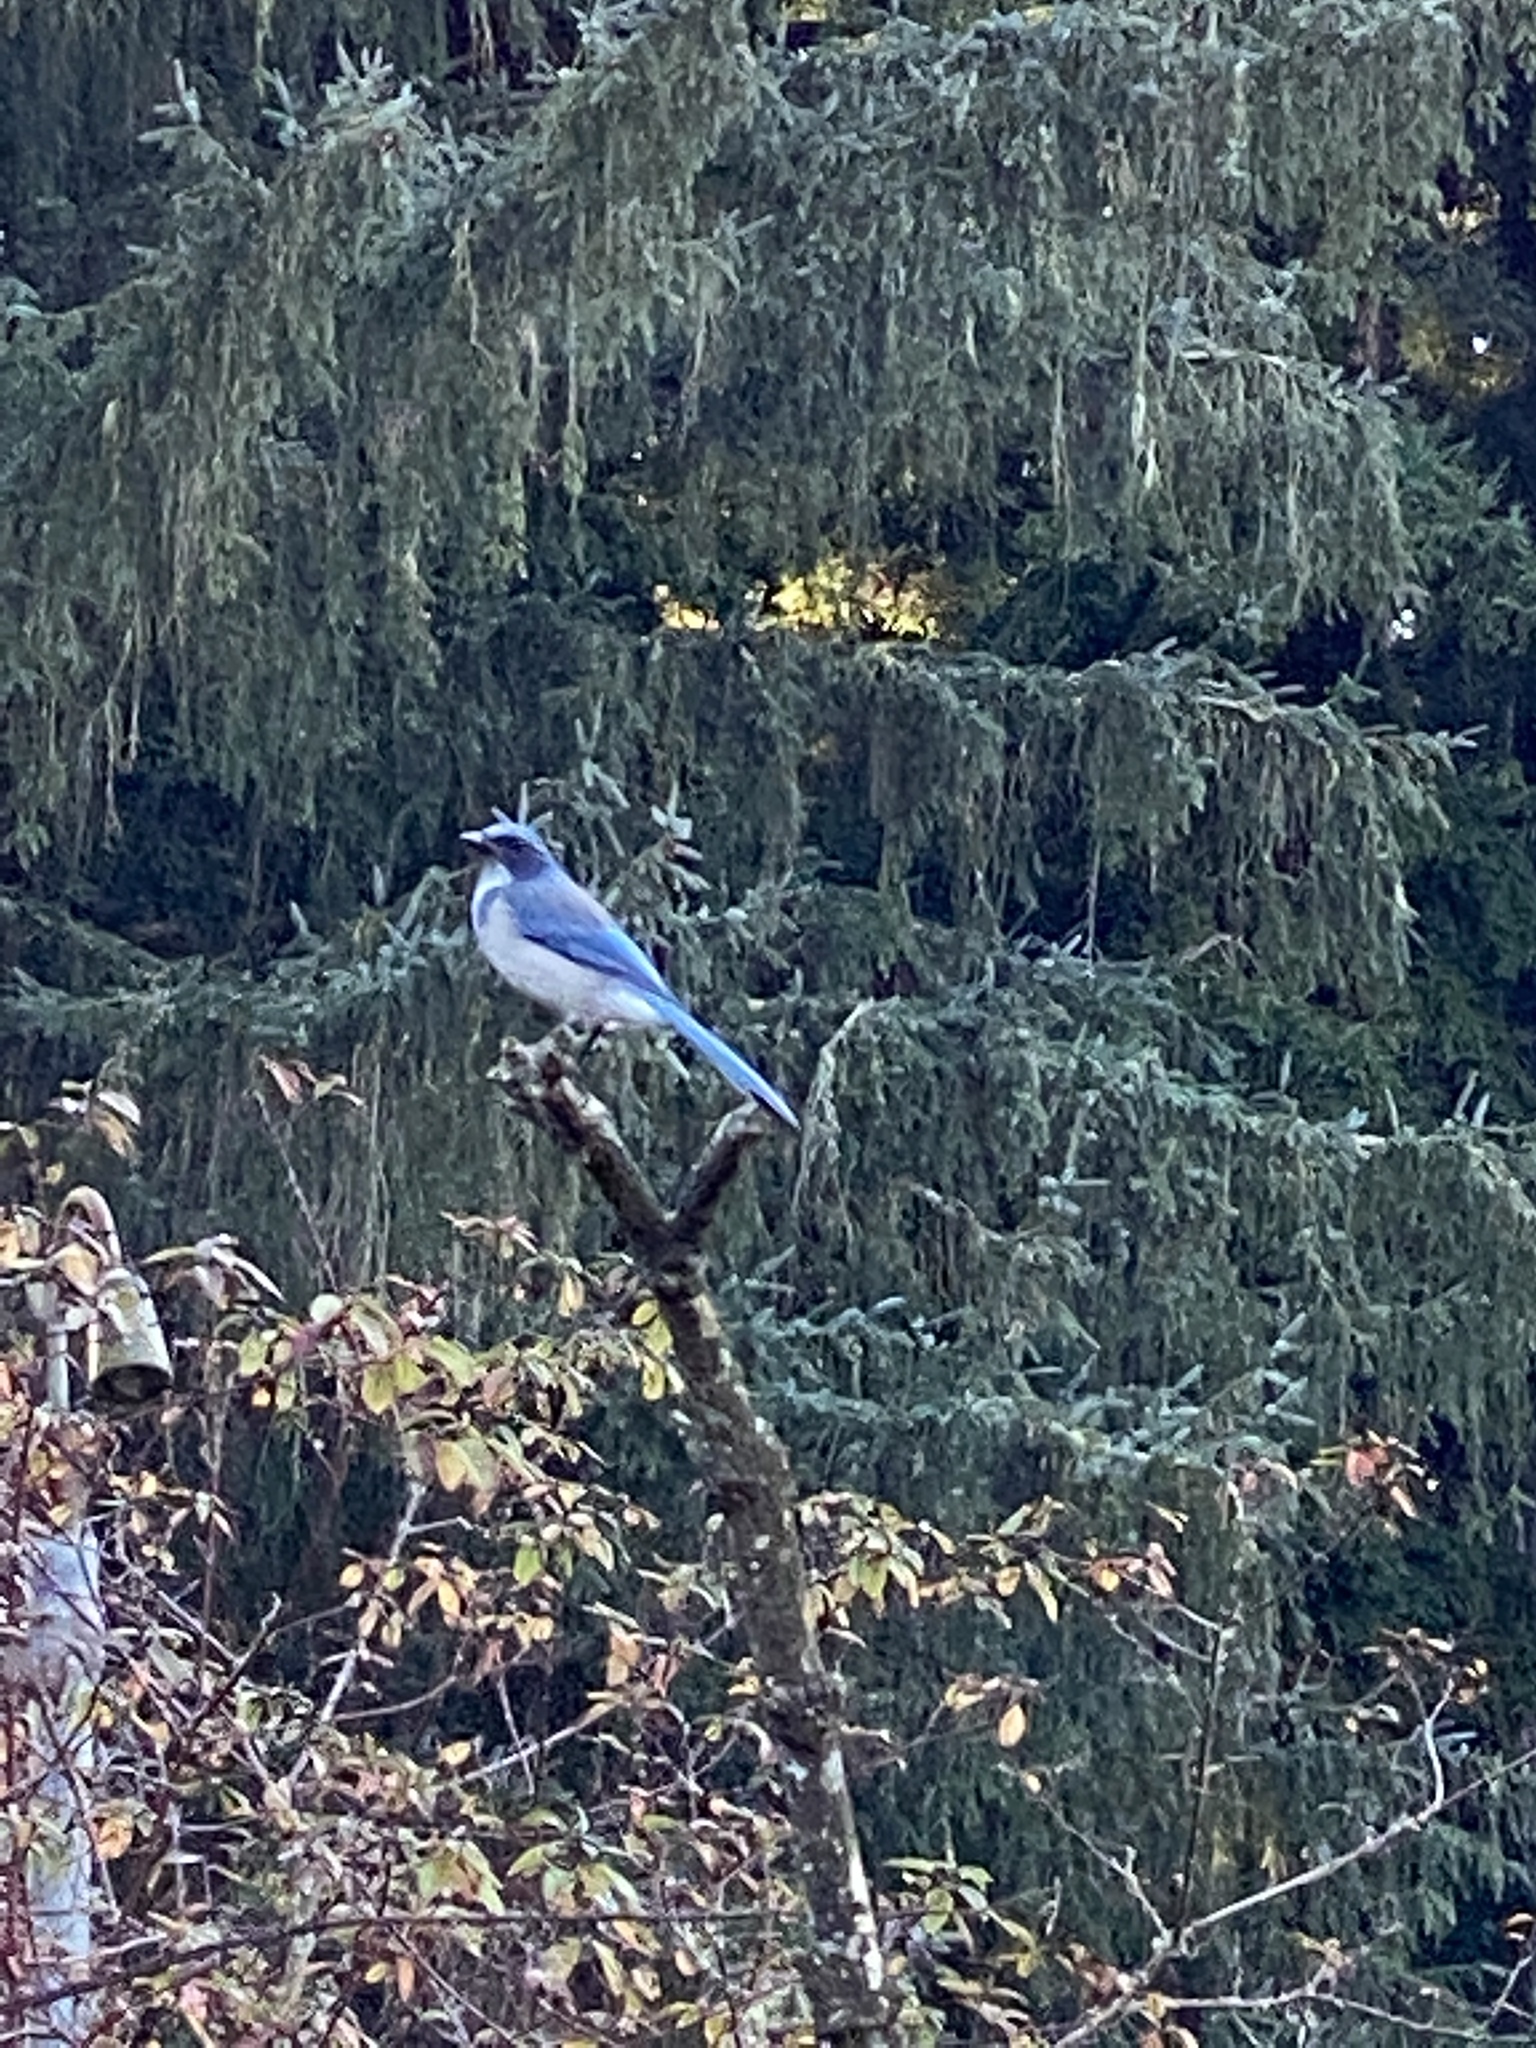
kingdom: Animalia
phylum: Chordata
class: Aves
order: Passeriformes
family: Corvidae
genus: Aphelocoma
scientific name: Aphelocoma californica
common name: California scrub-jay
